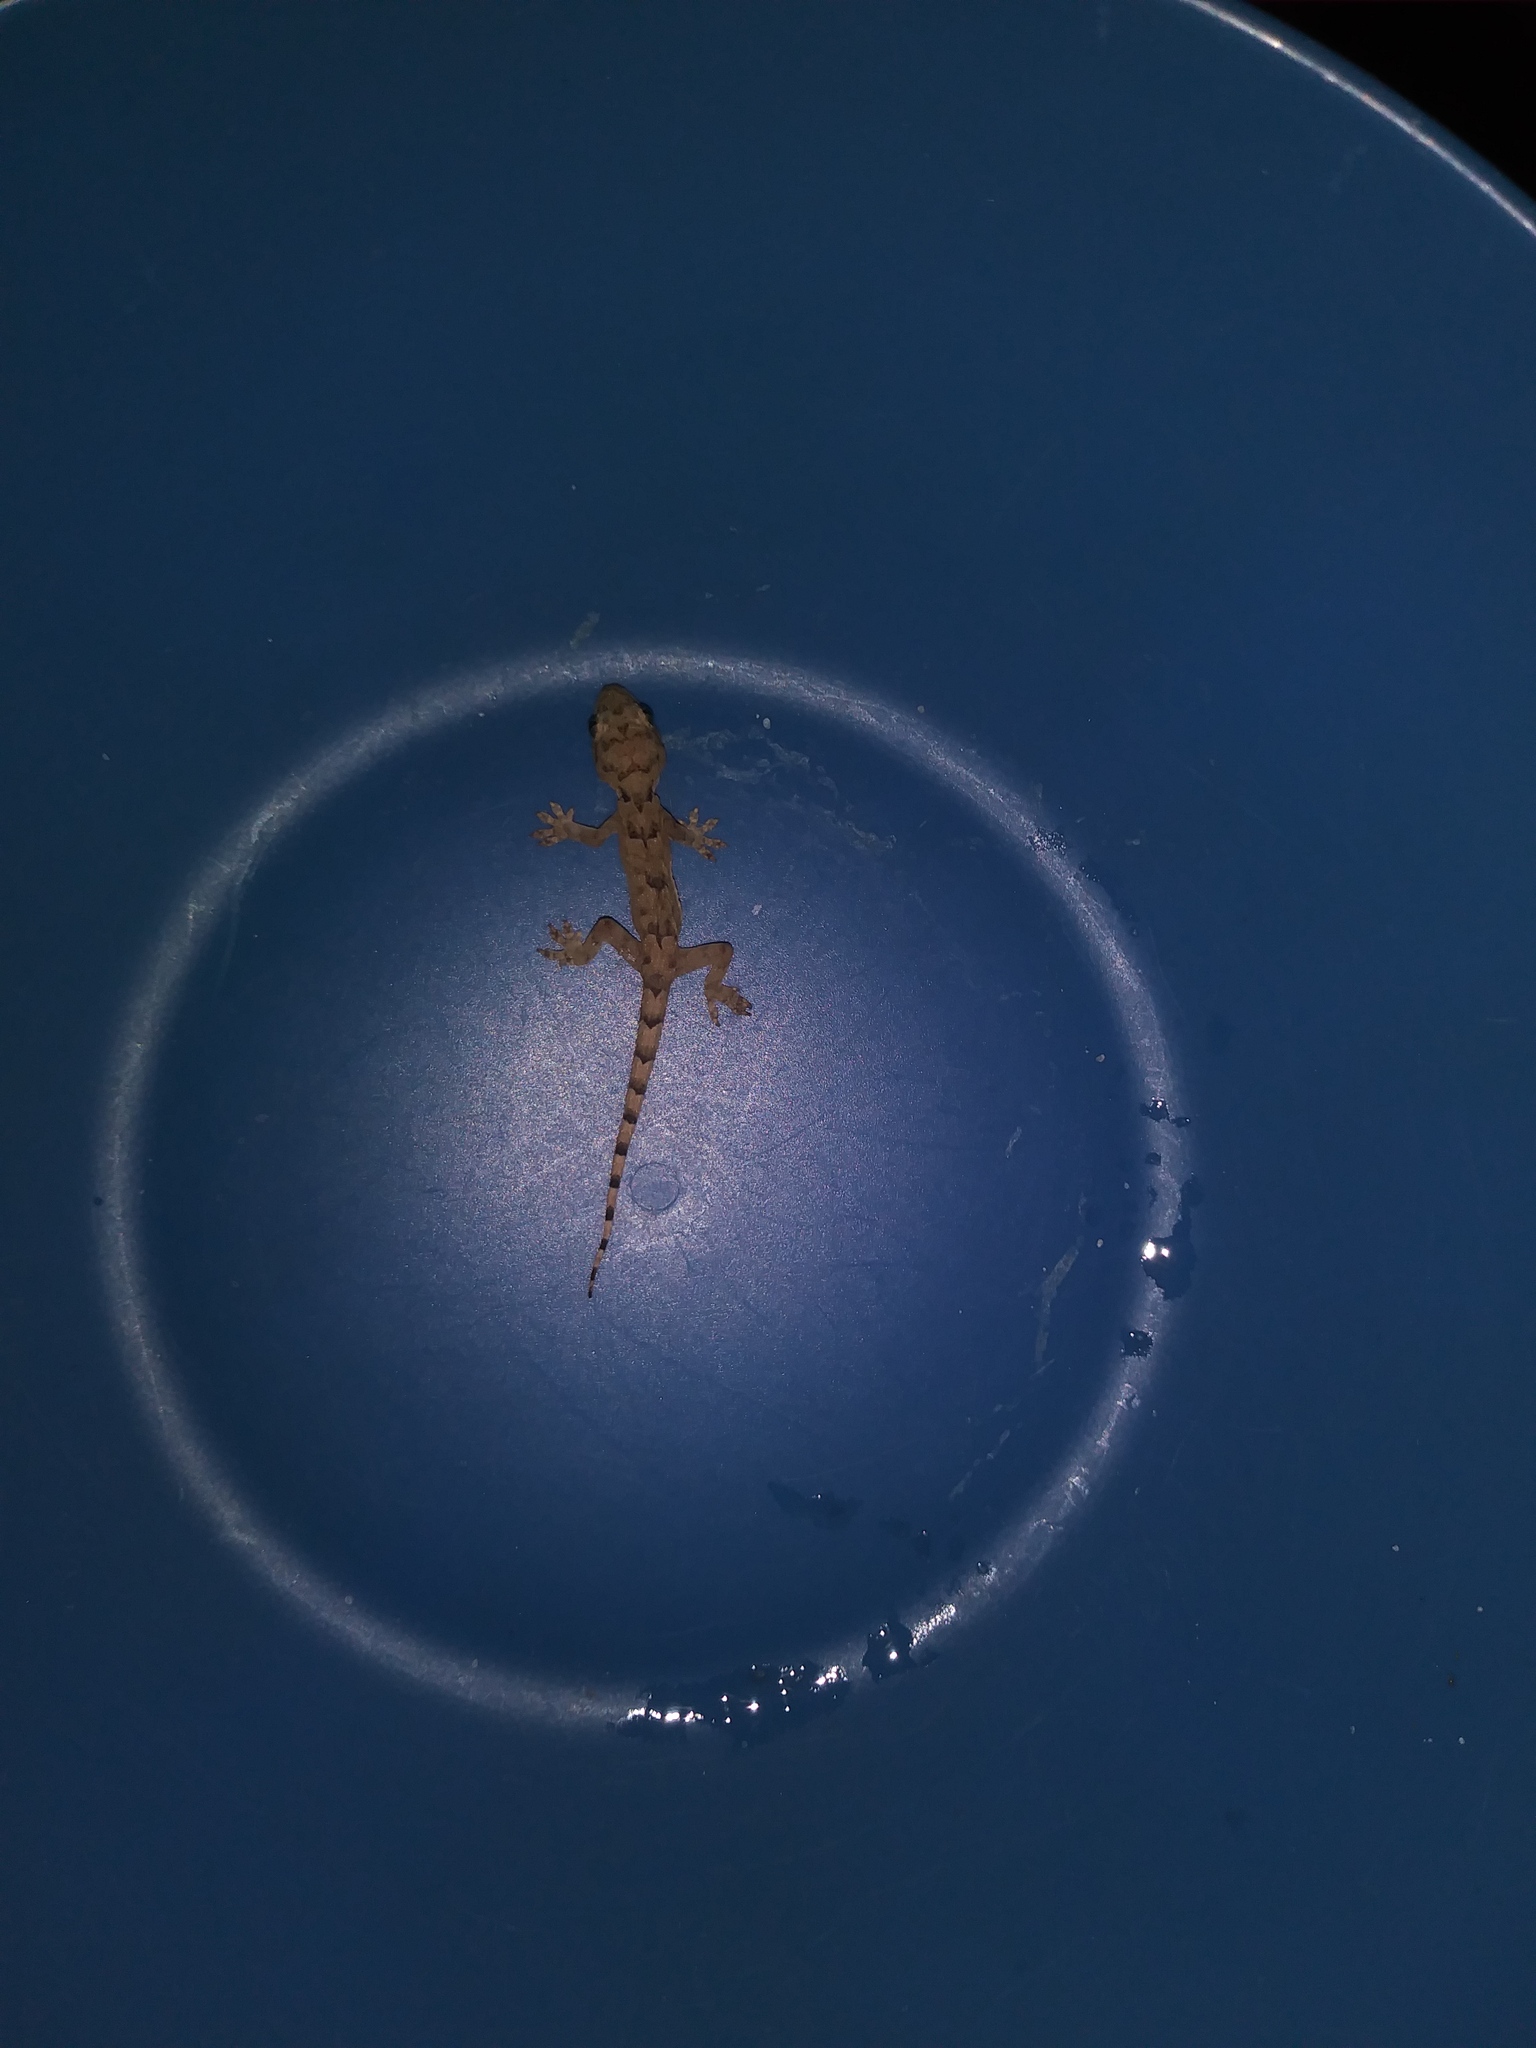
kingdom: Animalia
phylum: Chordata
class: Squamata
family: Gekkonidae
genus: Hemidactylus
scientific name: Hemidactylus mabouia
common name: House gecko
